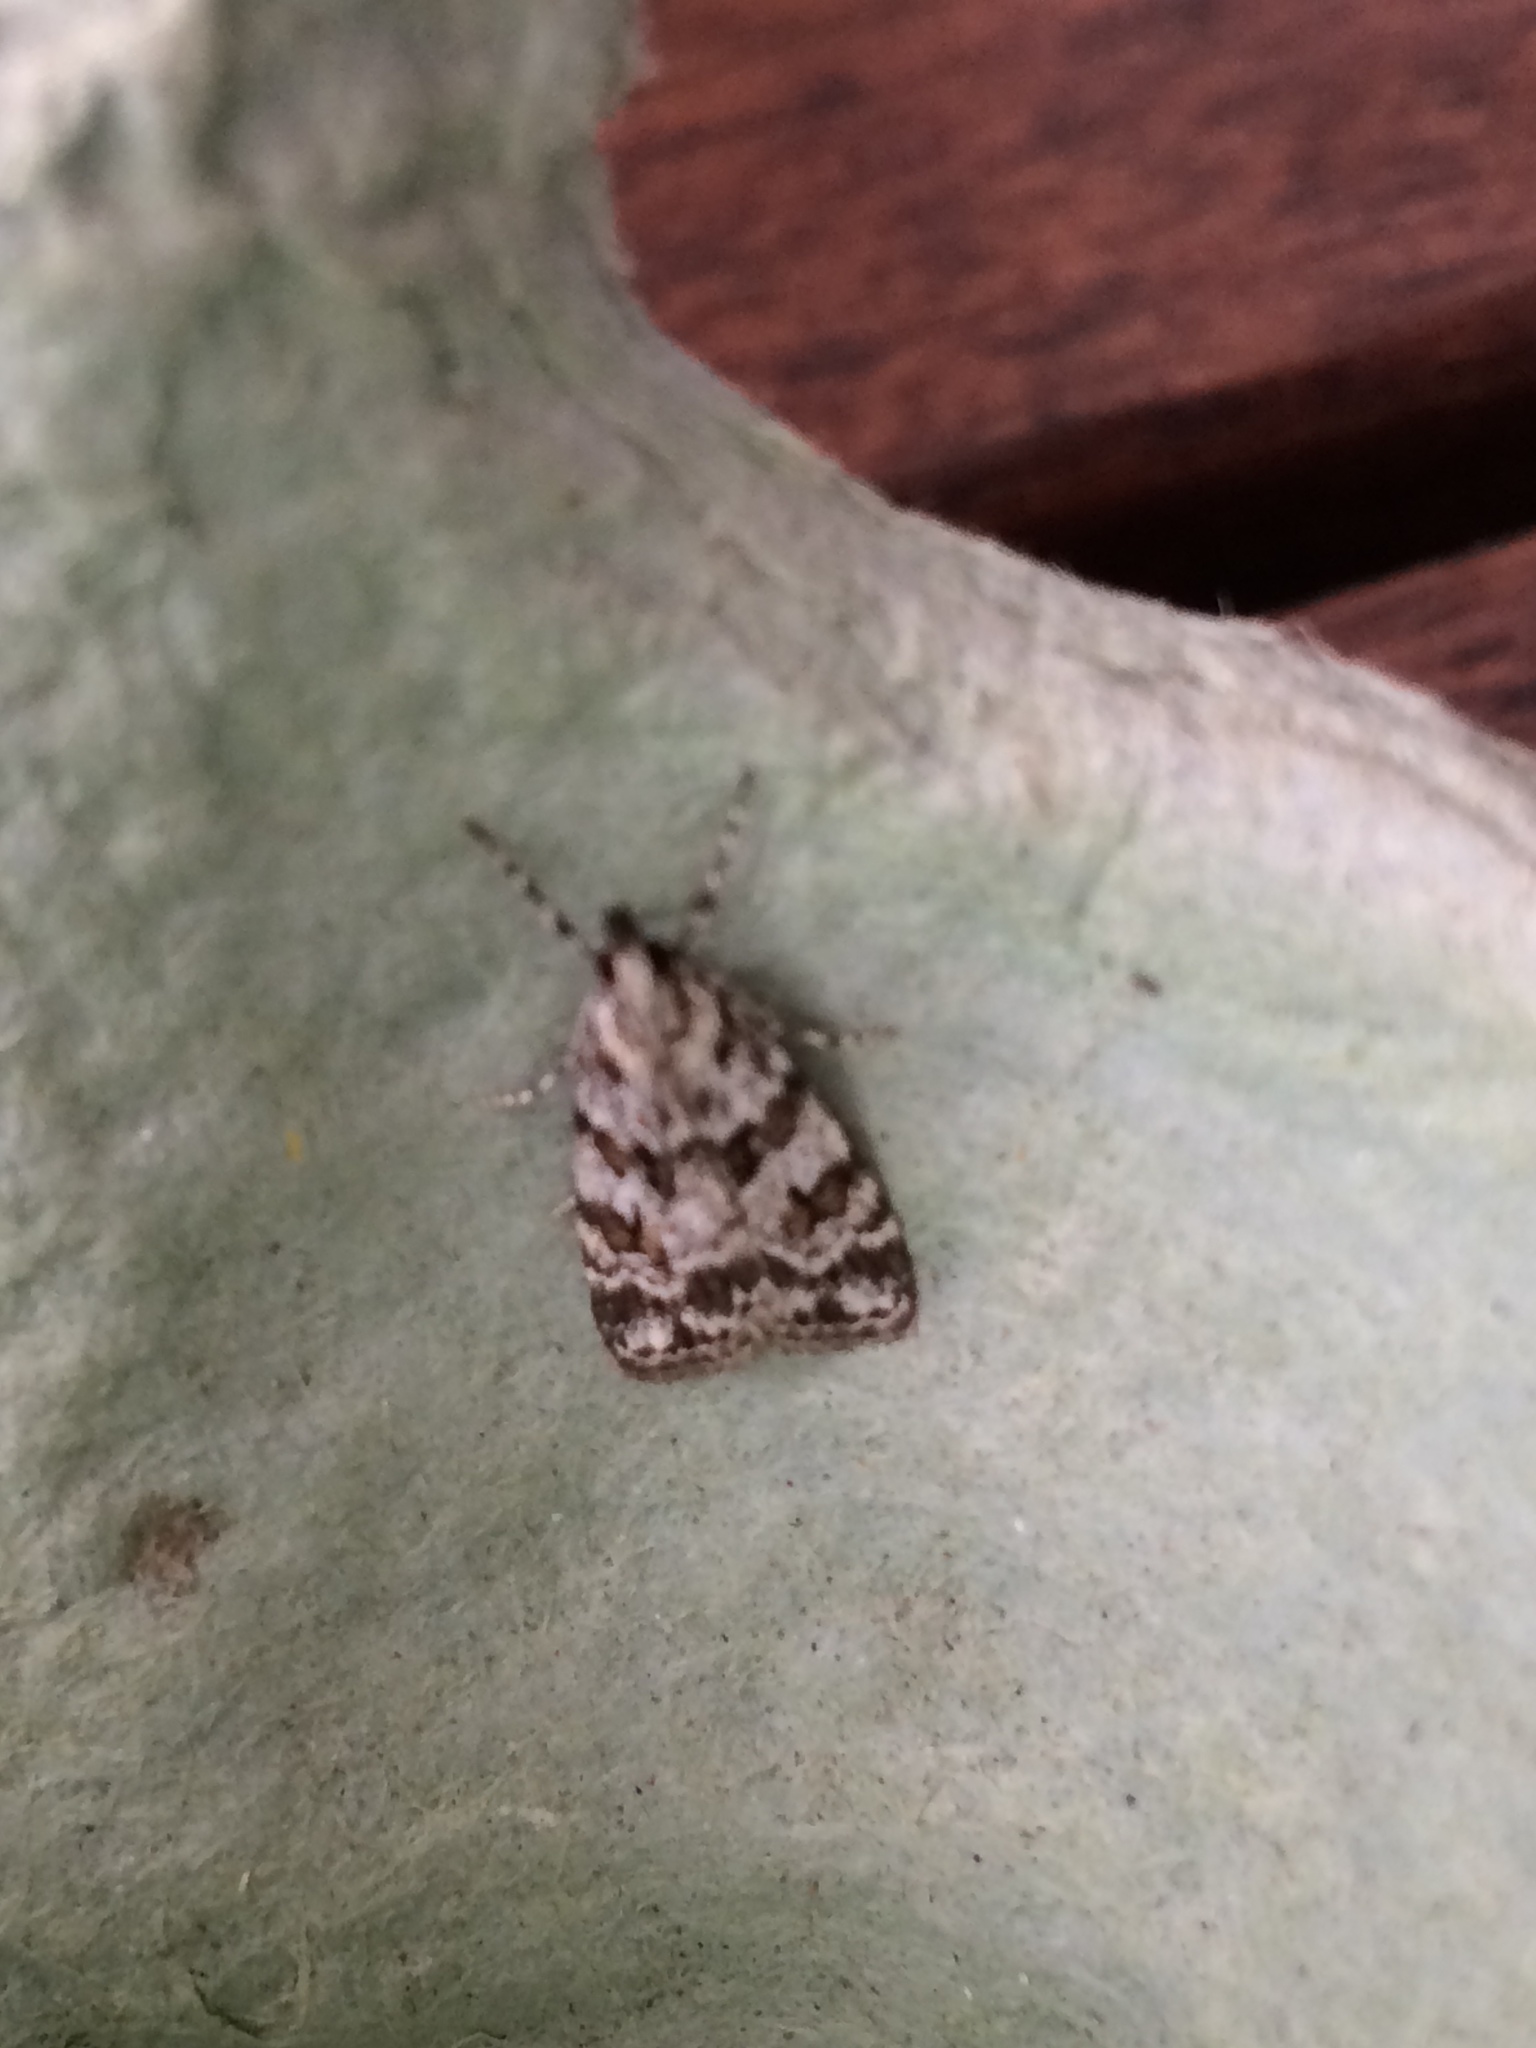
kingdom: Animalia
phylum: Arthropoda
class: Insecta
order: Lepidoptera
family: Crambidae
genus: Scoparia
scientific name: Scoparia pyralella
